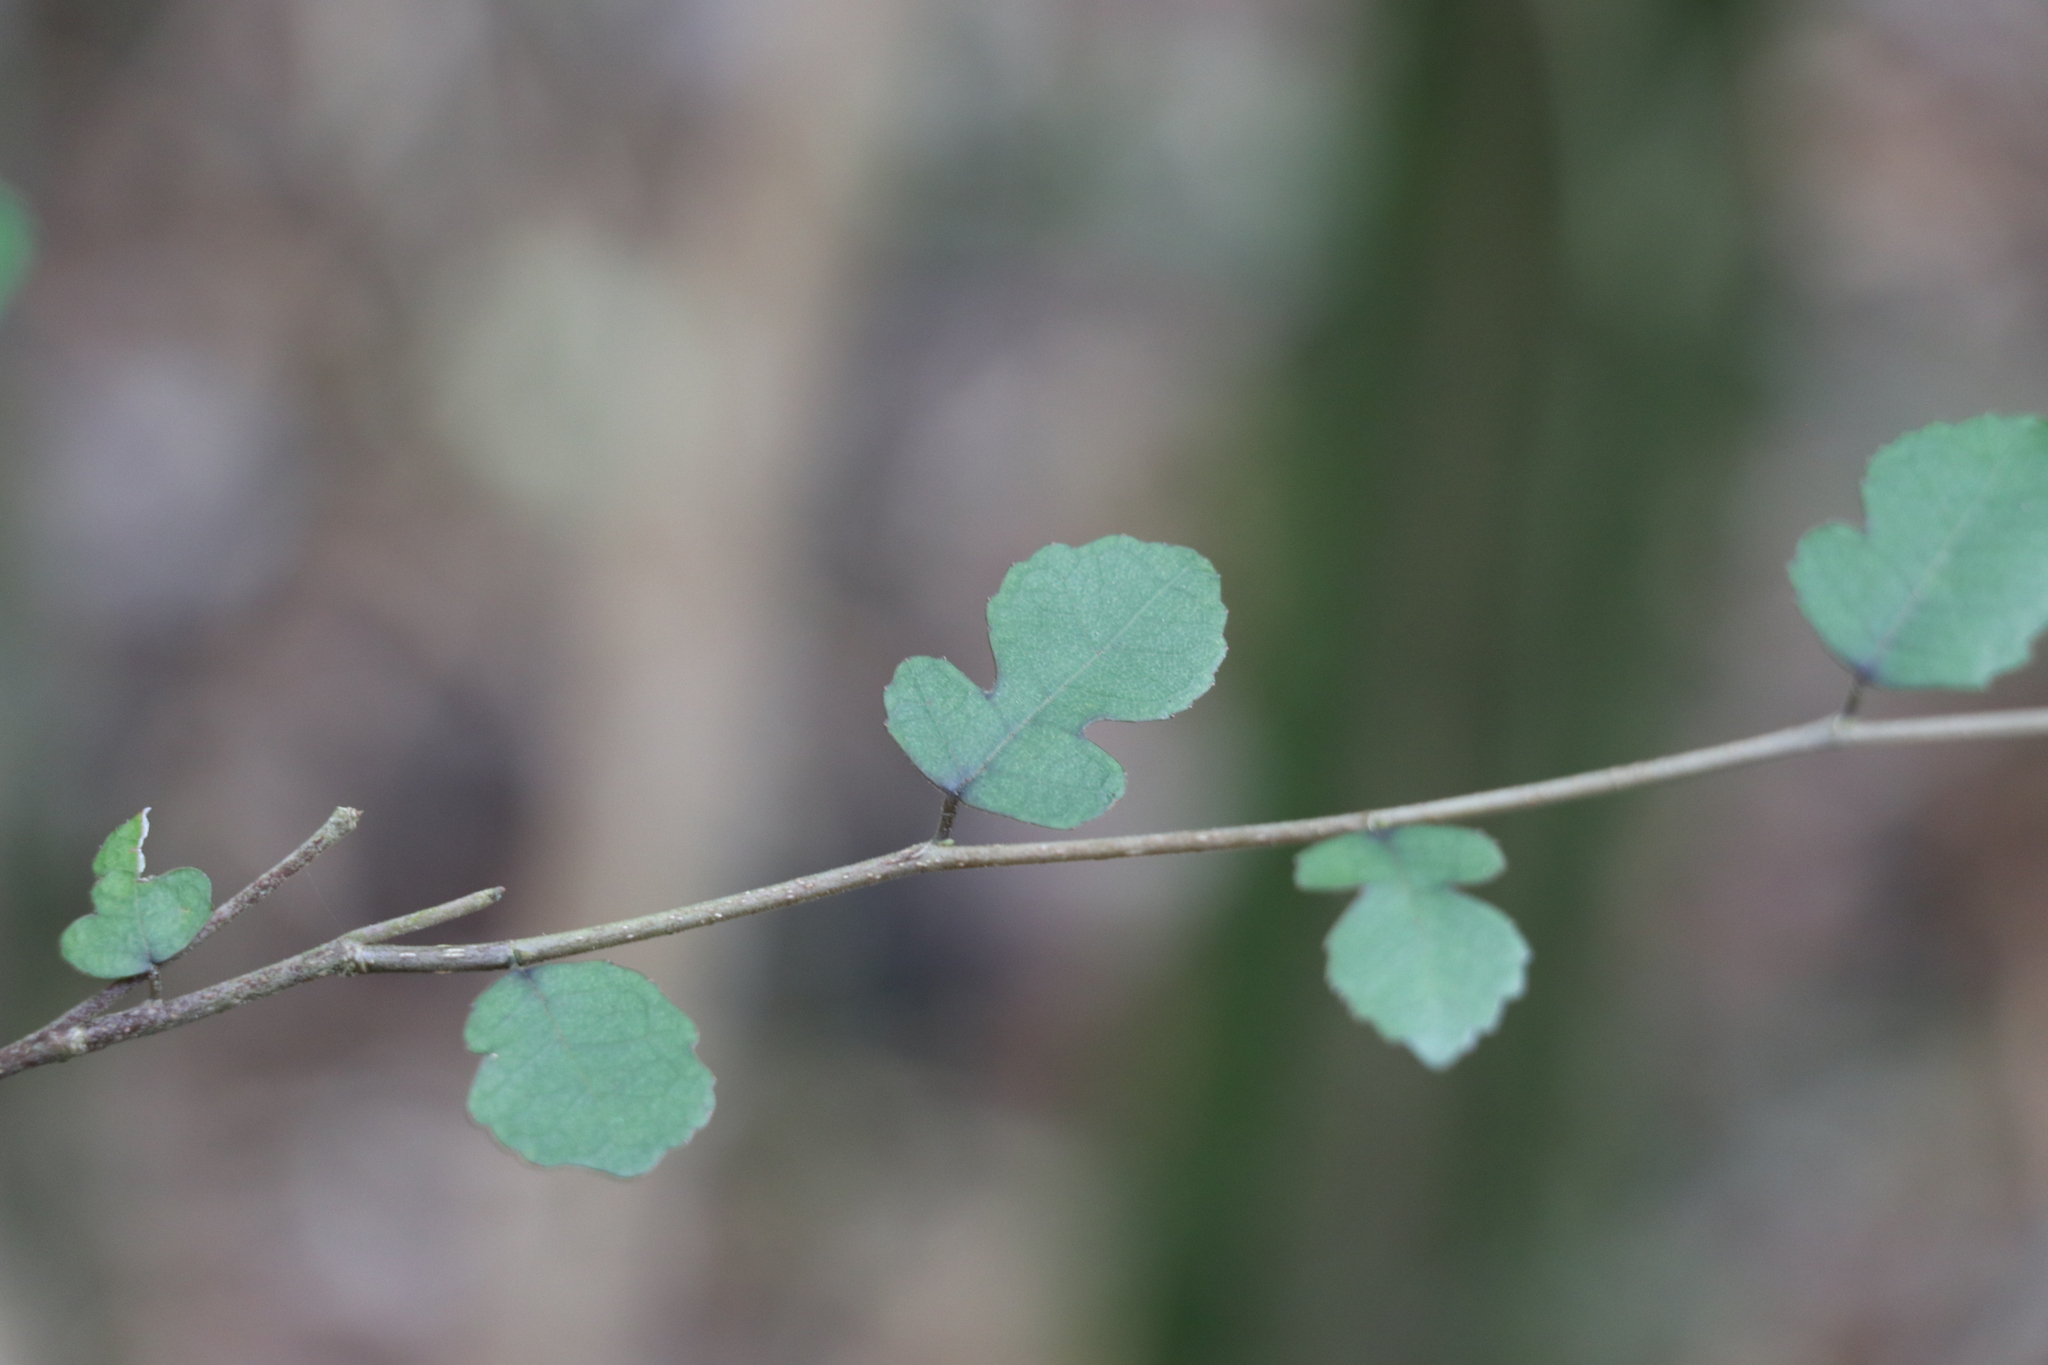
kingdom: Plantae
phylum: Tracheophyta
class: Magnoliopsida
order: Rosales
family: Moraceae
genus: Paratrophis
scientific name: Paratrophis microphylla
